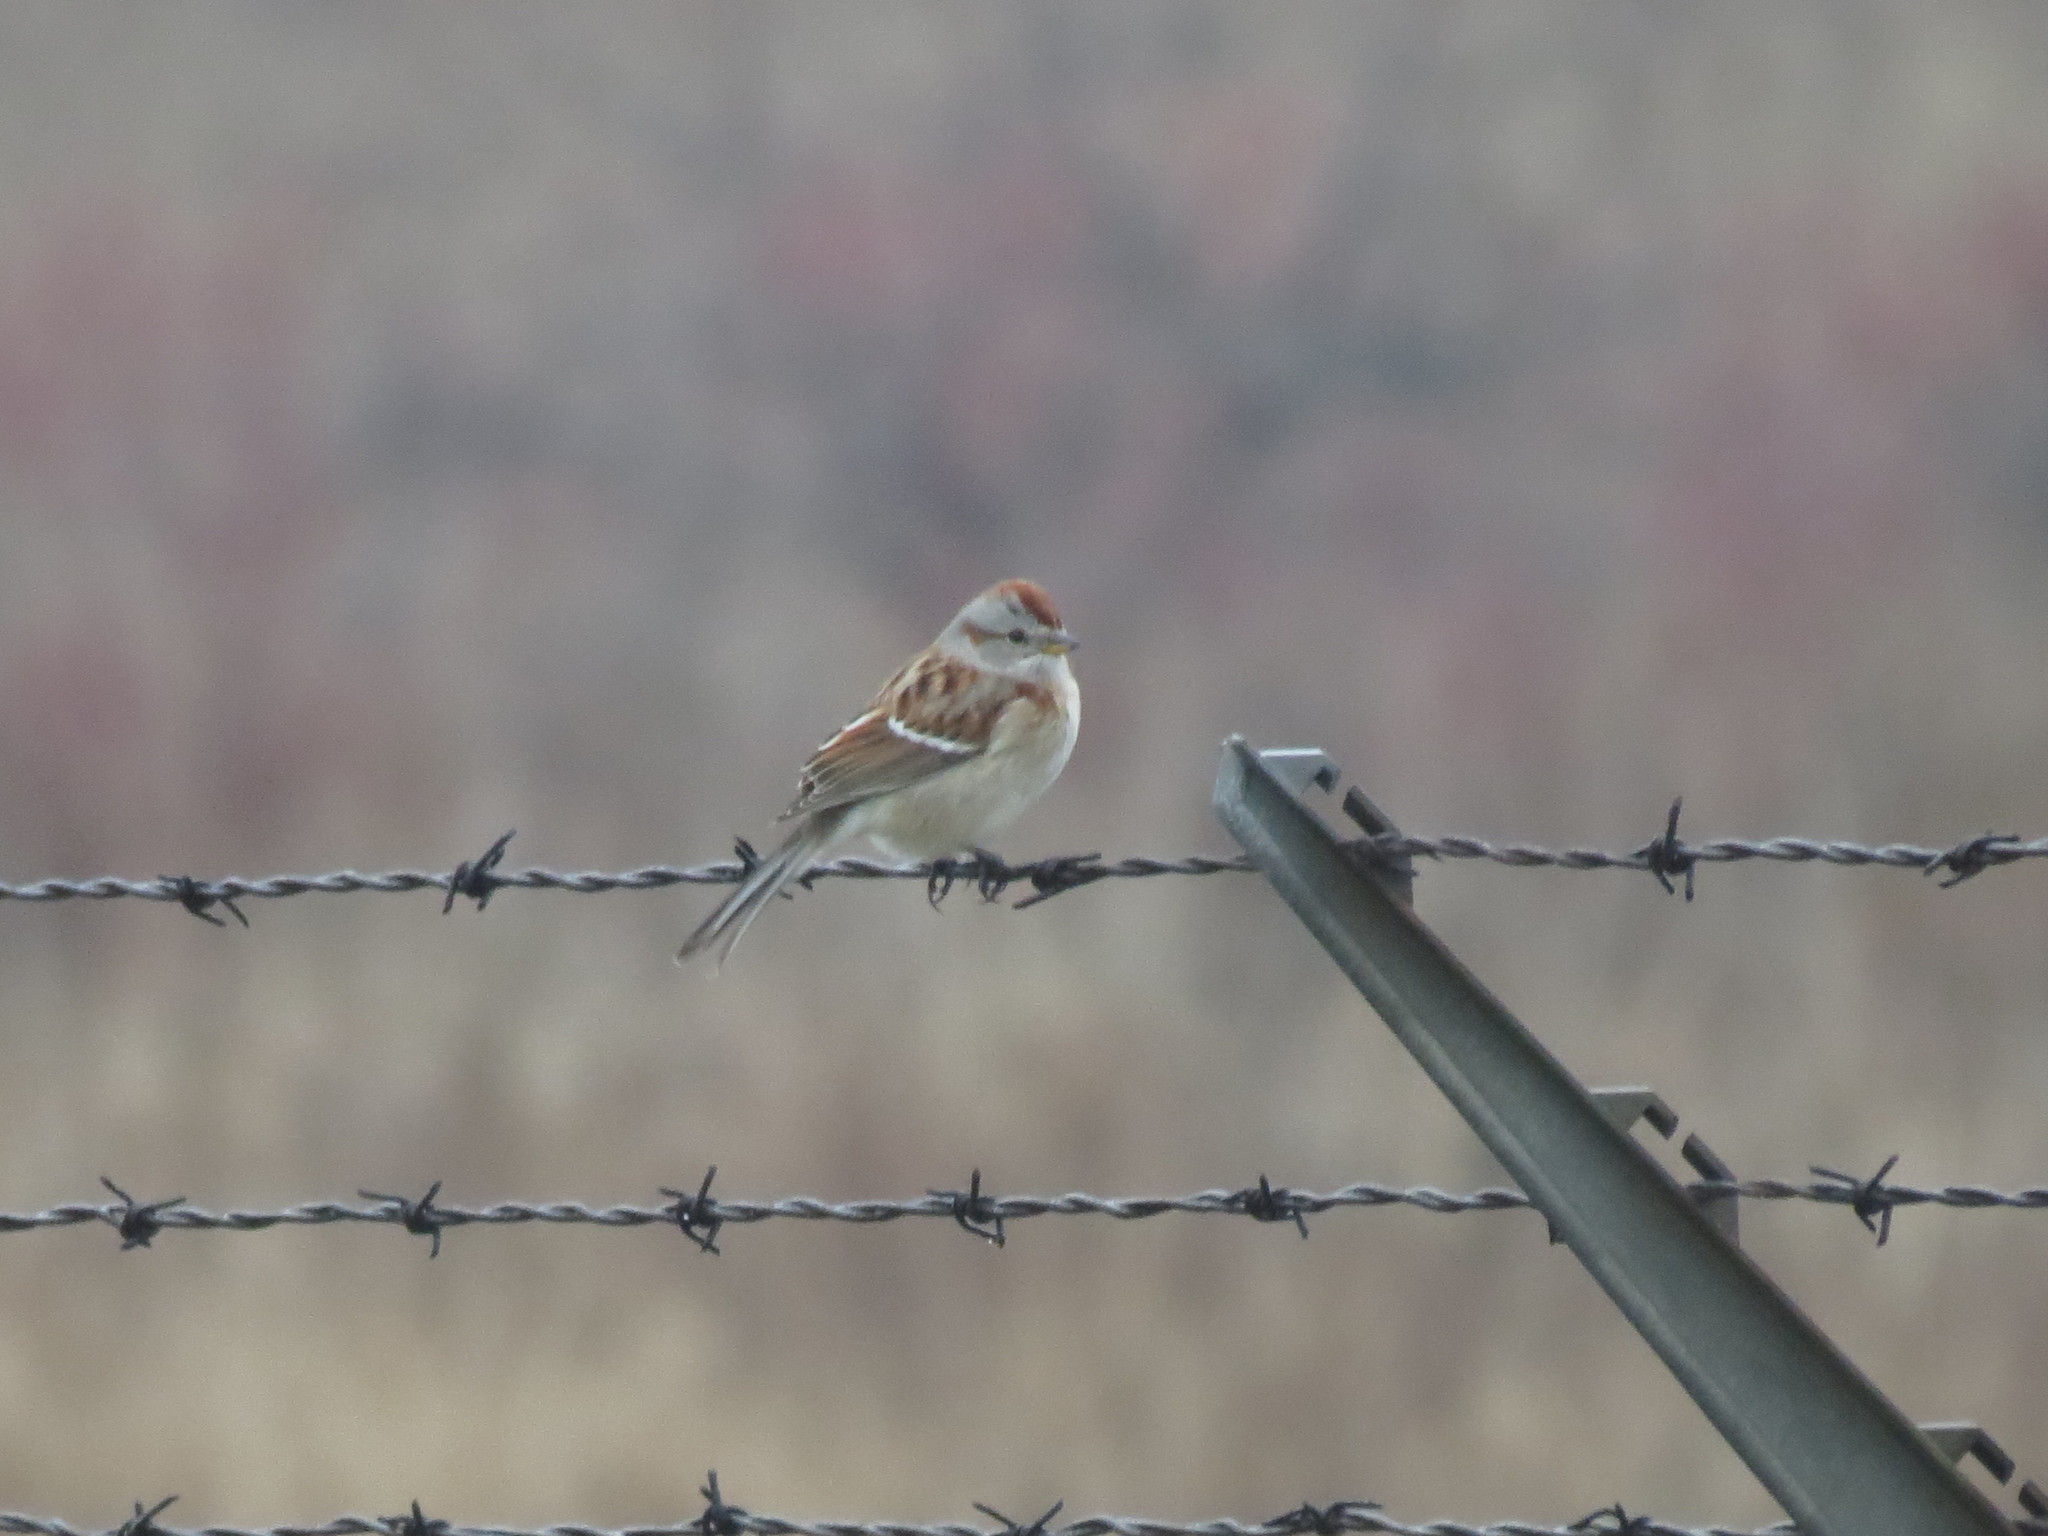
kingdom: Animalia
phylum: Chordata
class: Aves
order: Passeriformes
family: Passerellidae
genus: Spizelloides
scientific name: Spizelloides arborea
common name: American tree sparrow
